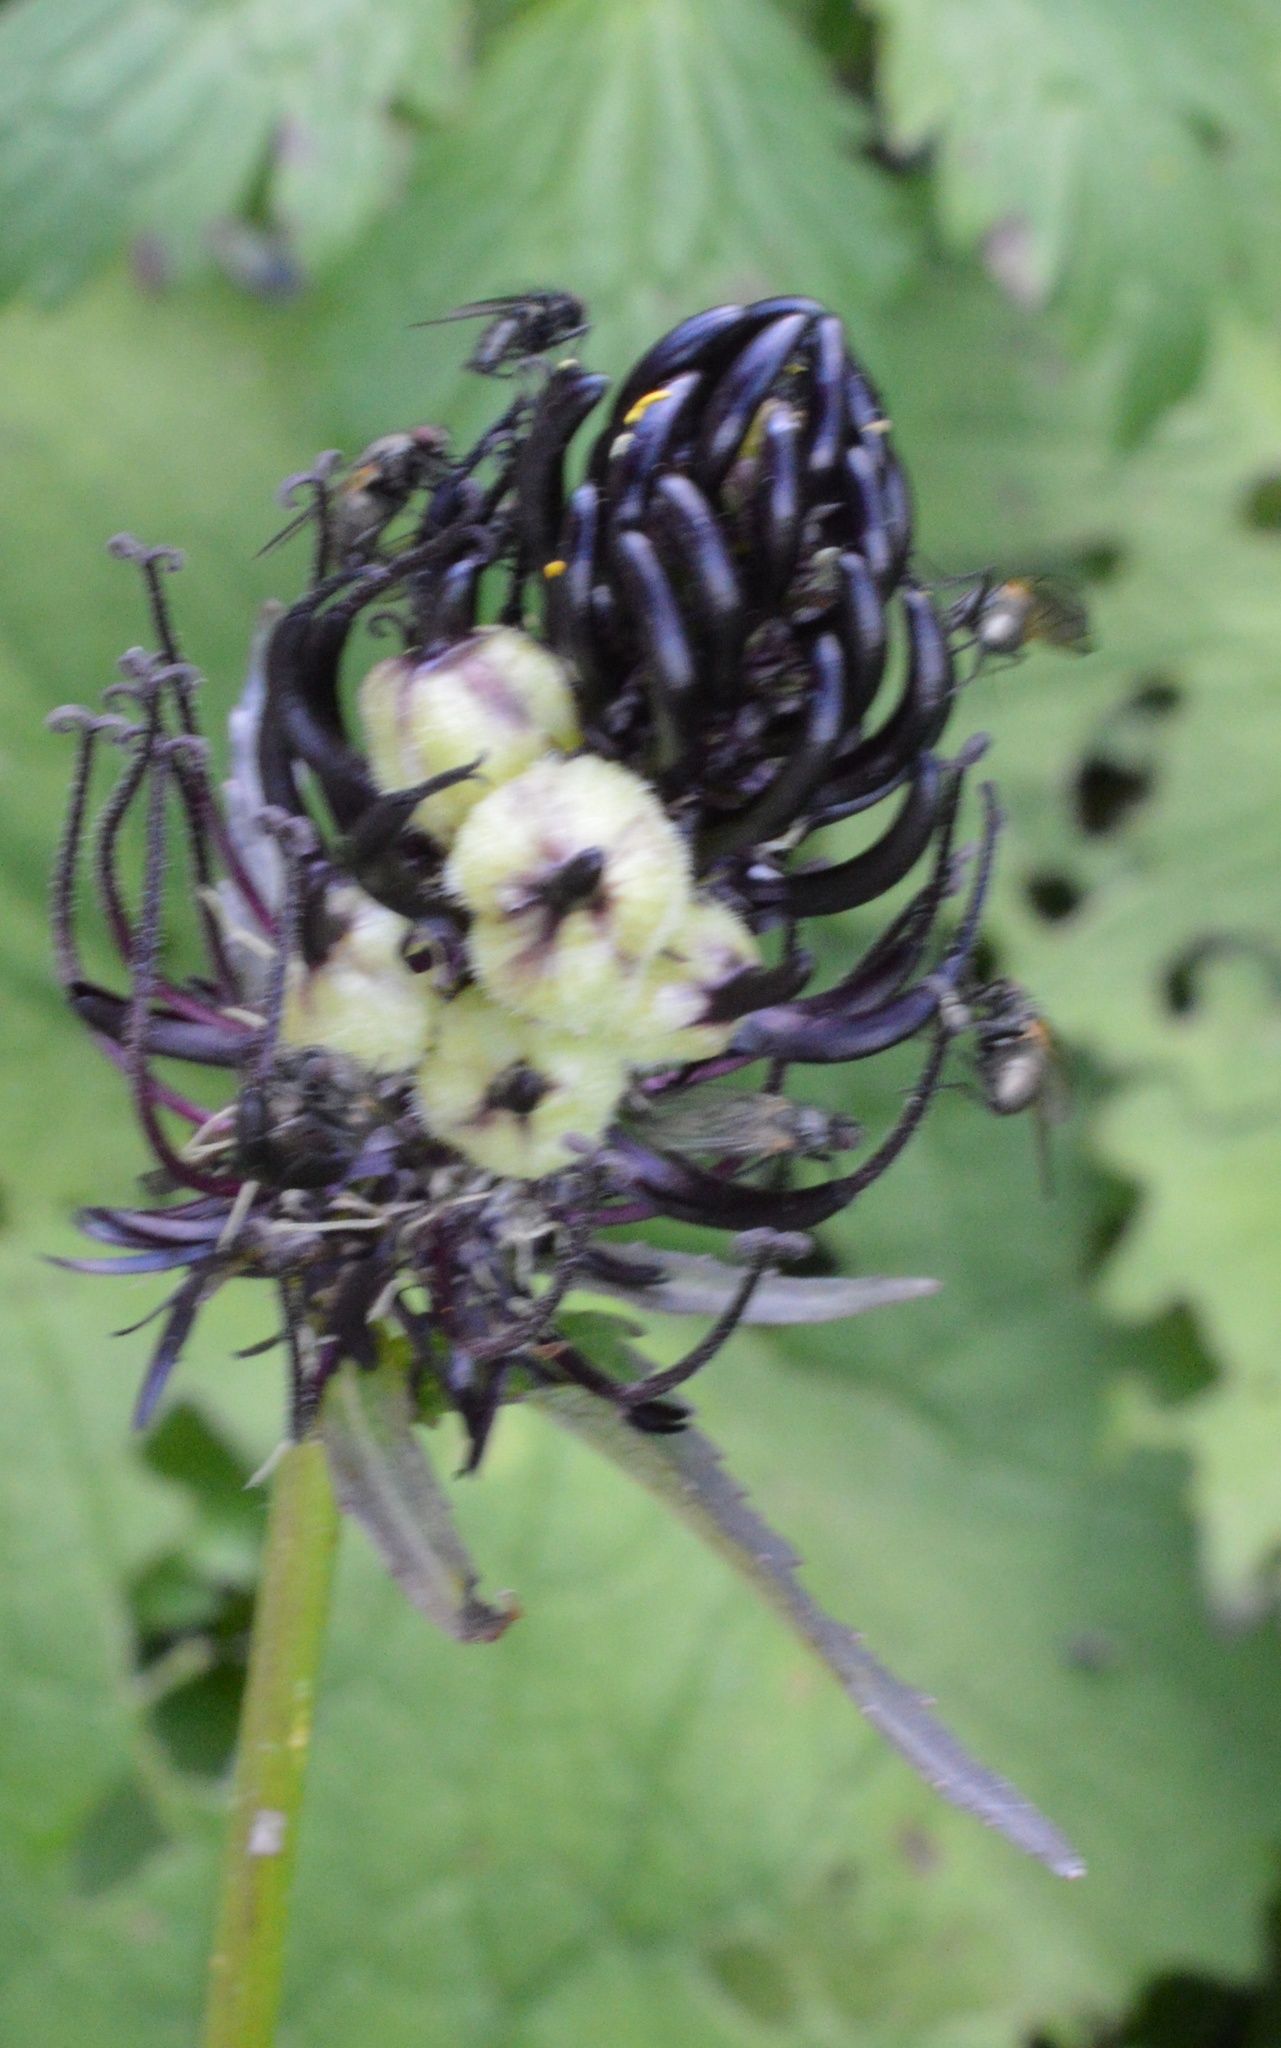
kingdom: Animalia
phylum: Arthropoda
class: Insecta
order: Diptera
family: Cecidomyiidae
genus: Dasineura
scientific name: Dasineura phyteumatis
